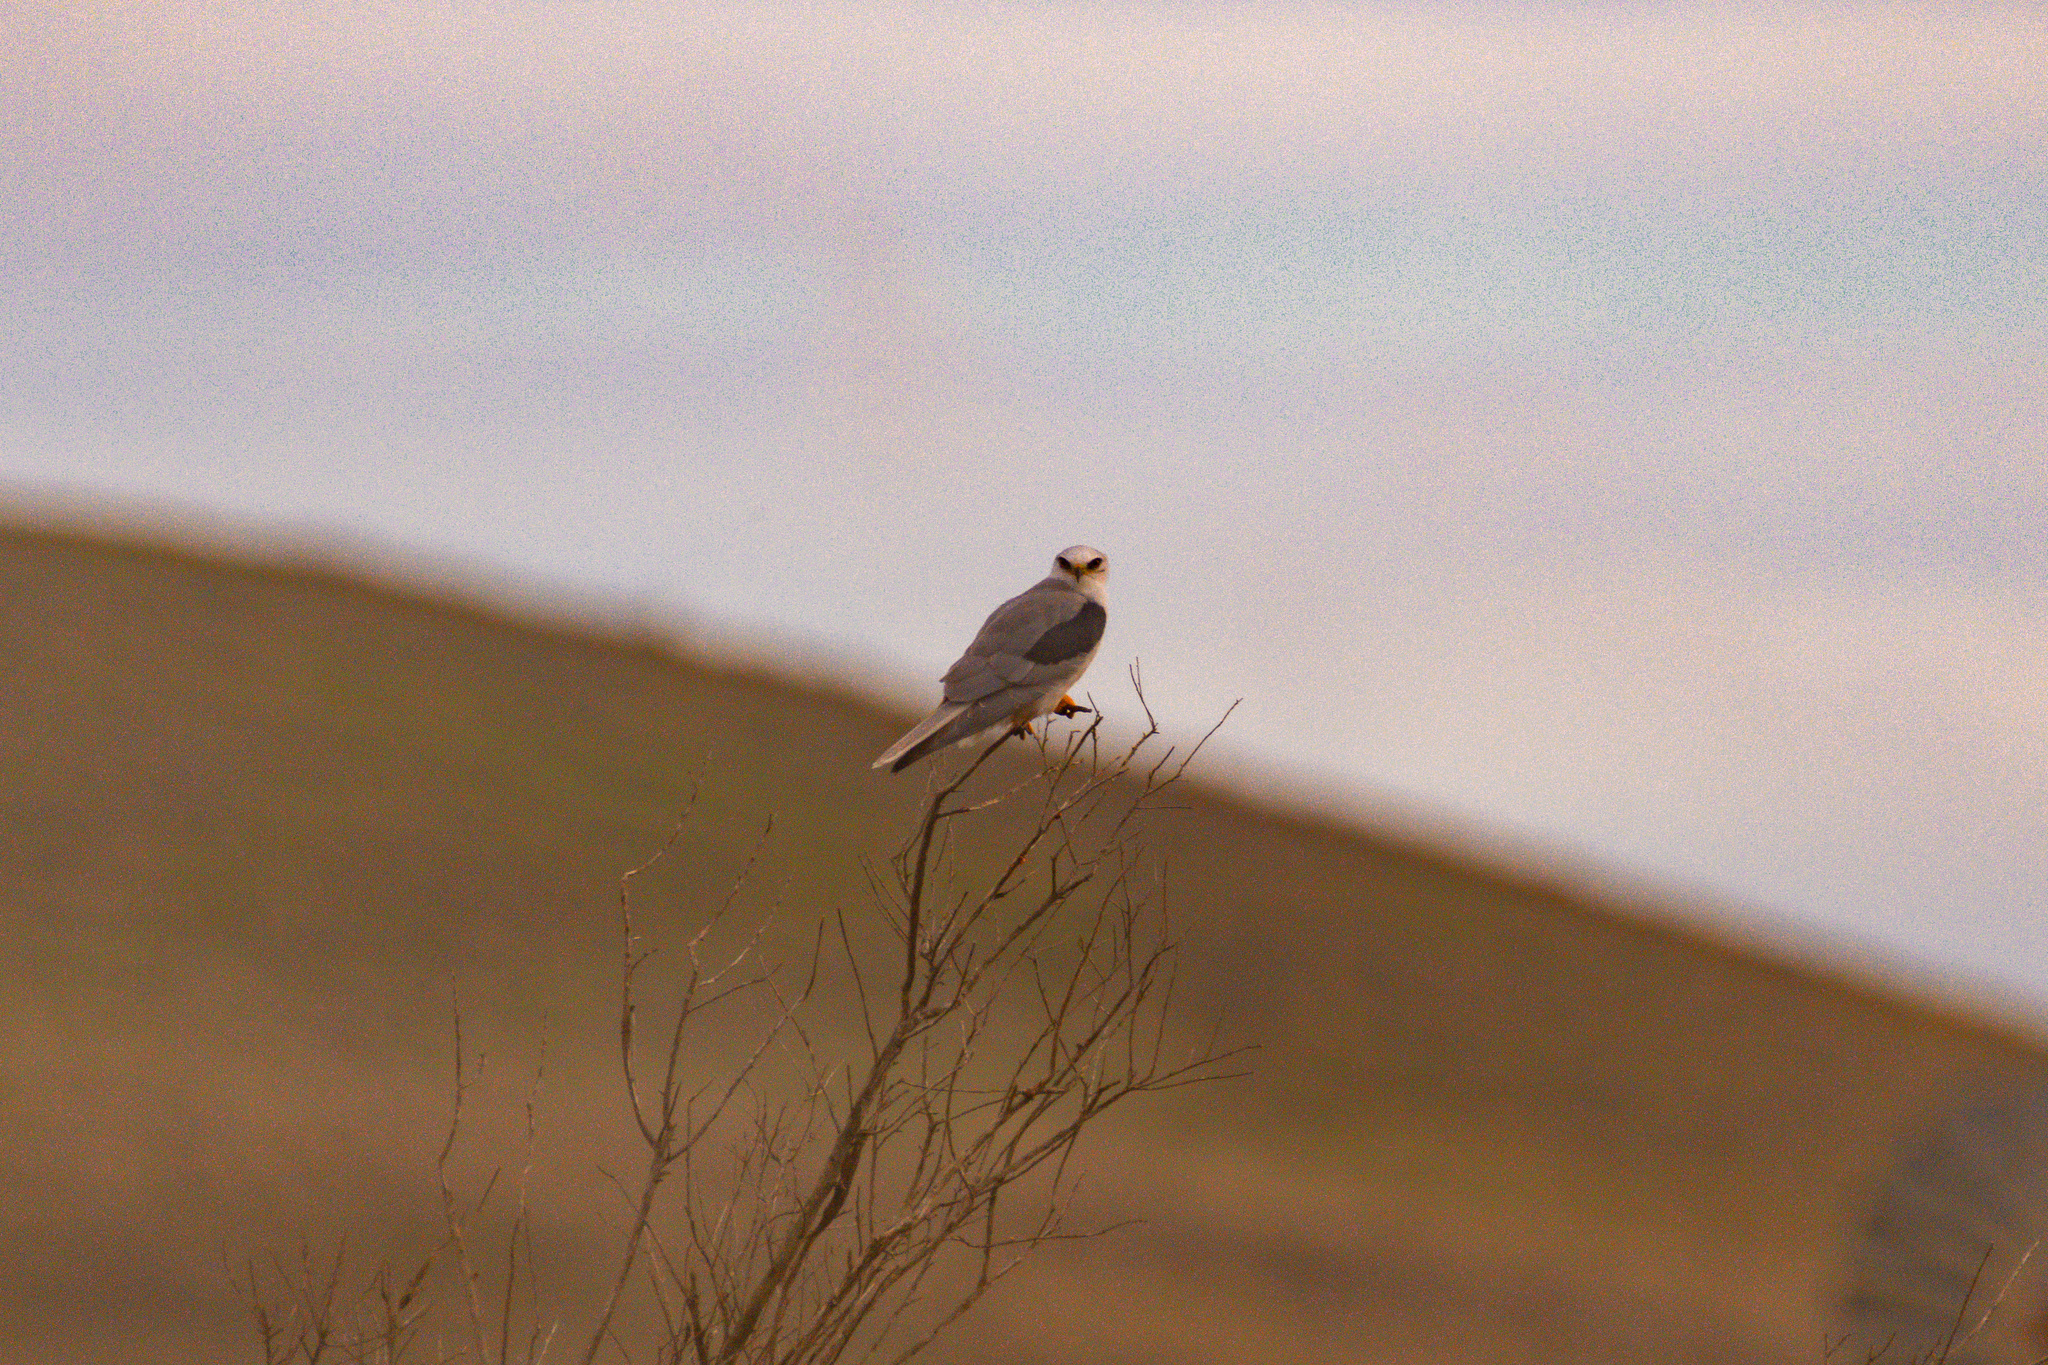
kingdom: Animalia
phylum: Chordata
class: Aves
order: Accipitriformes
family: Accipitridae
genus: Elanus
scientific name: Elanus leucurus
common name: White-tailed kite
